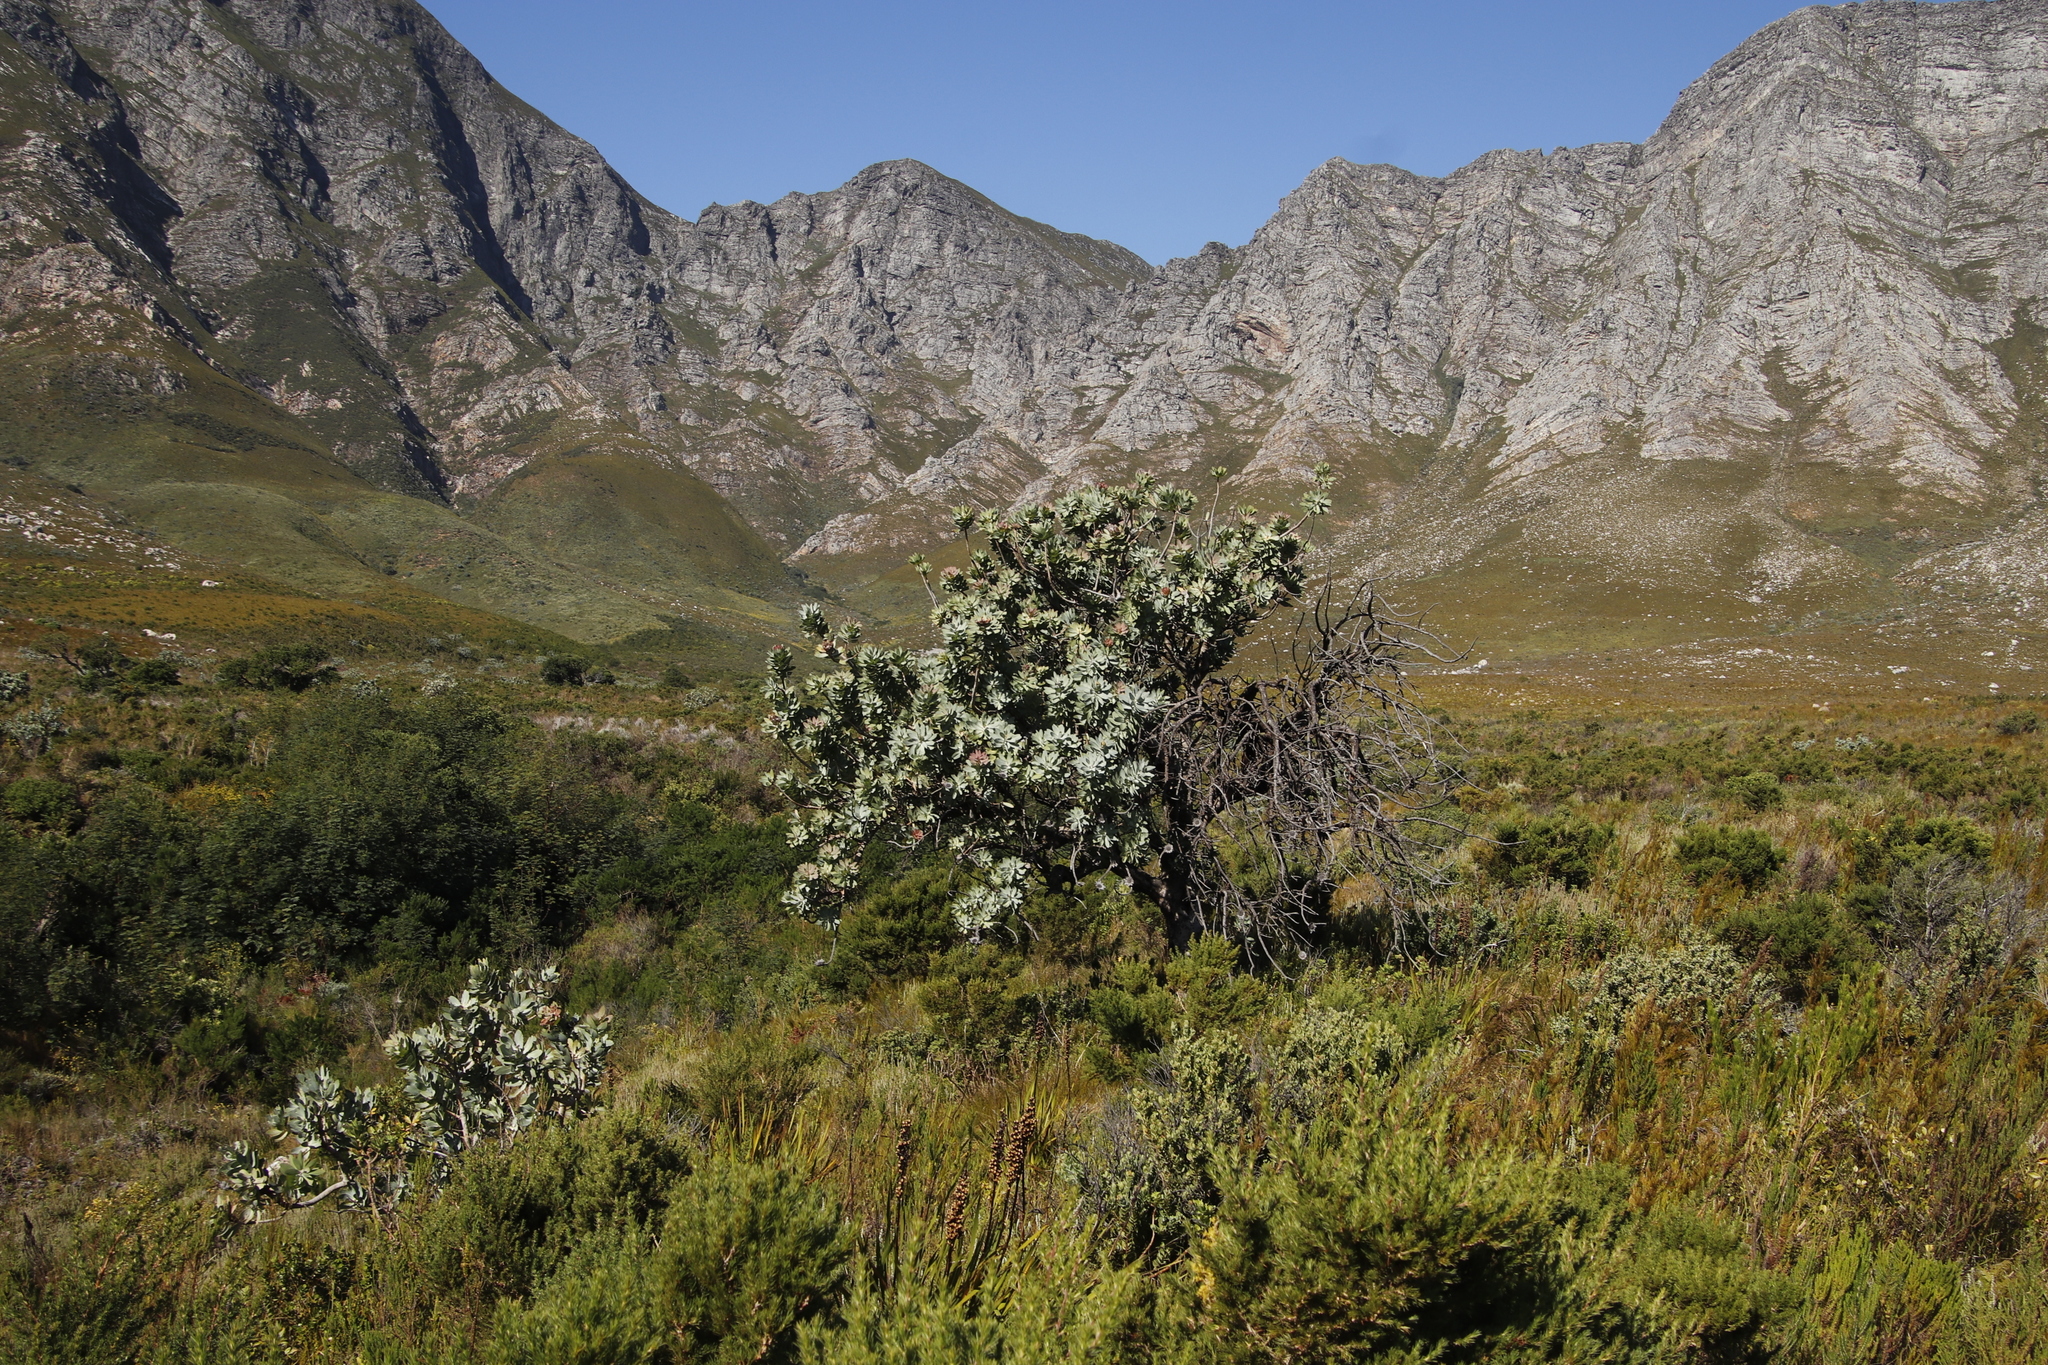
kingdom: Plantae
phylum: Tracheophyta
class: Magnoliopsida
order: Proteales
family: Proteaceae
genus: Protea
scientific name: Protea nitida
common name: Tree protea
